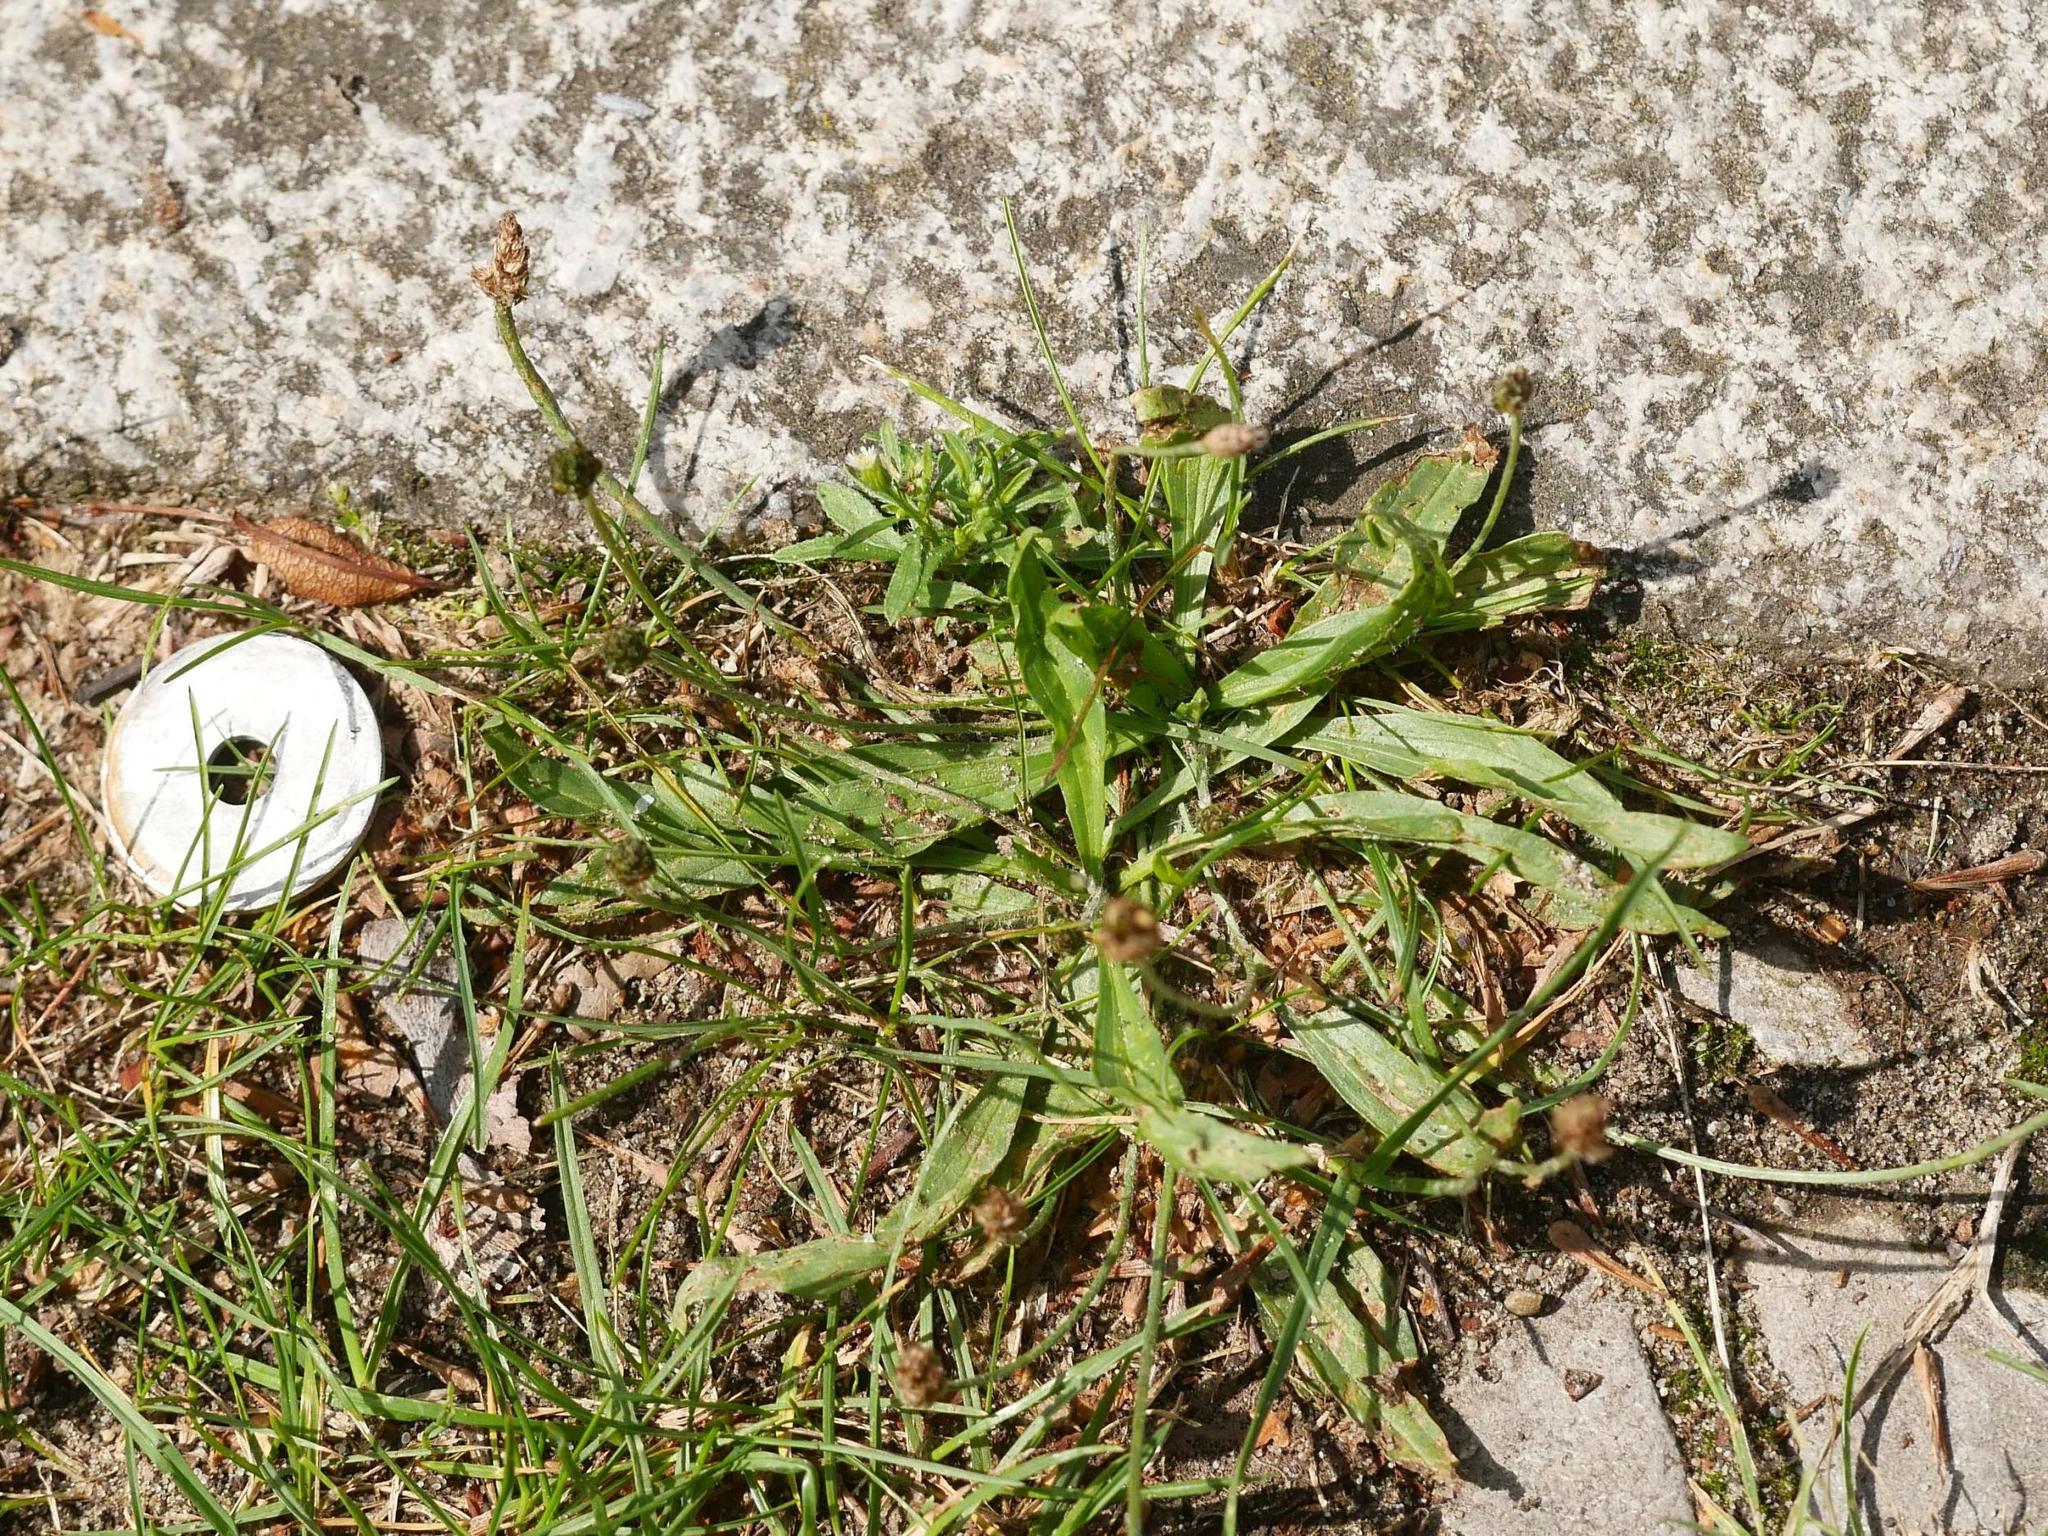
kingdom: Plantae
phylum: Tracheophyta
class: Magnoliopsida
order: Lamiales
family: Plantaginaceae
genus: Plantago
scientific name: Plantago lanceolata
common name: Ribwort plantain
